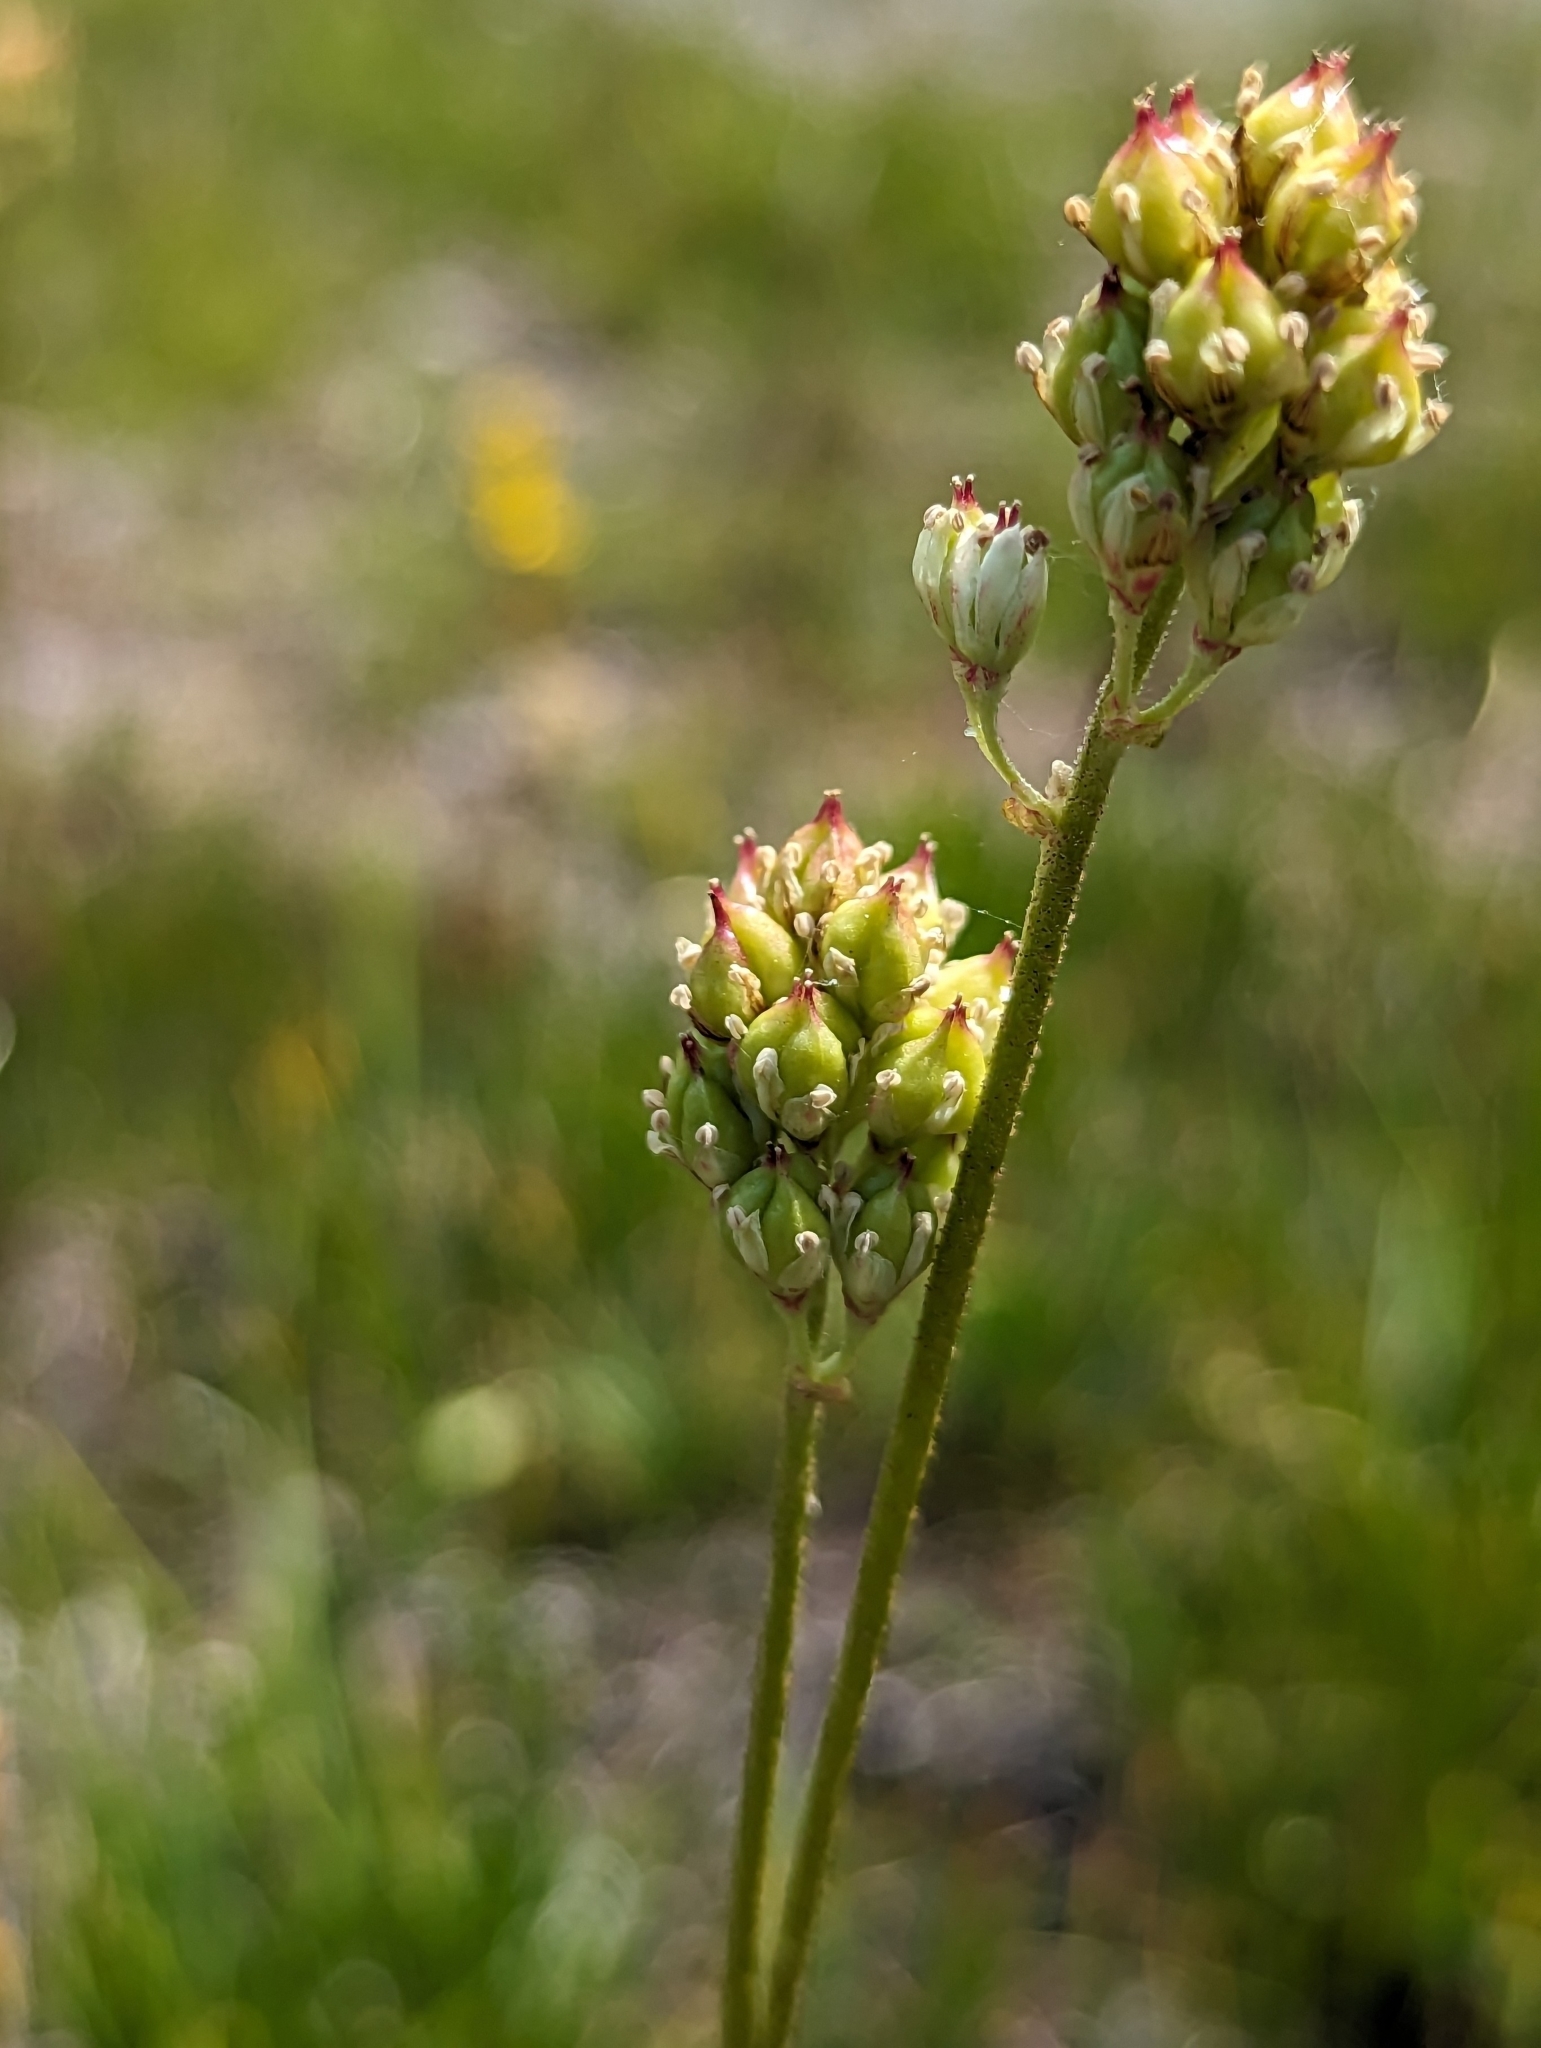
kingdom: Plantae
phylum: Tracheophyta
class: Liliopsida
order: Alismatales
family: Tofieldiaceae
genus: Triantha
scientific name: Triantha occidentalis
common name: Western false asphodel
